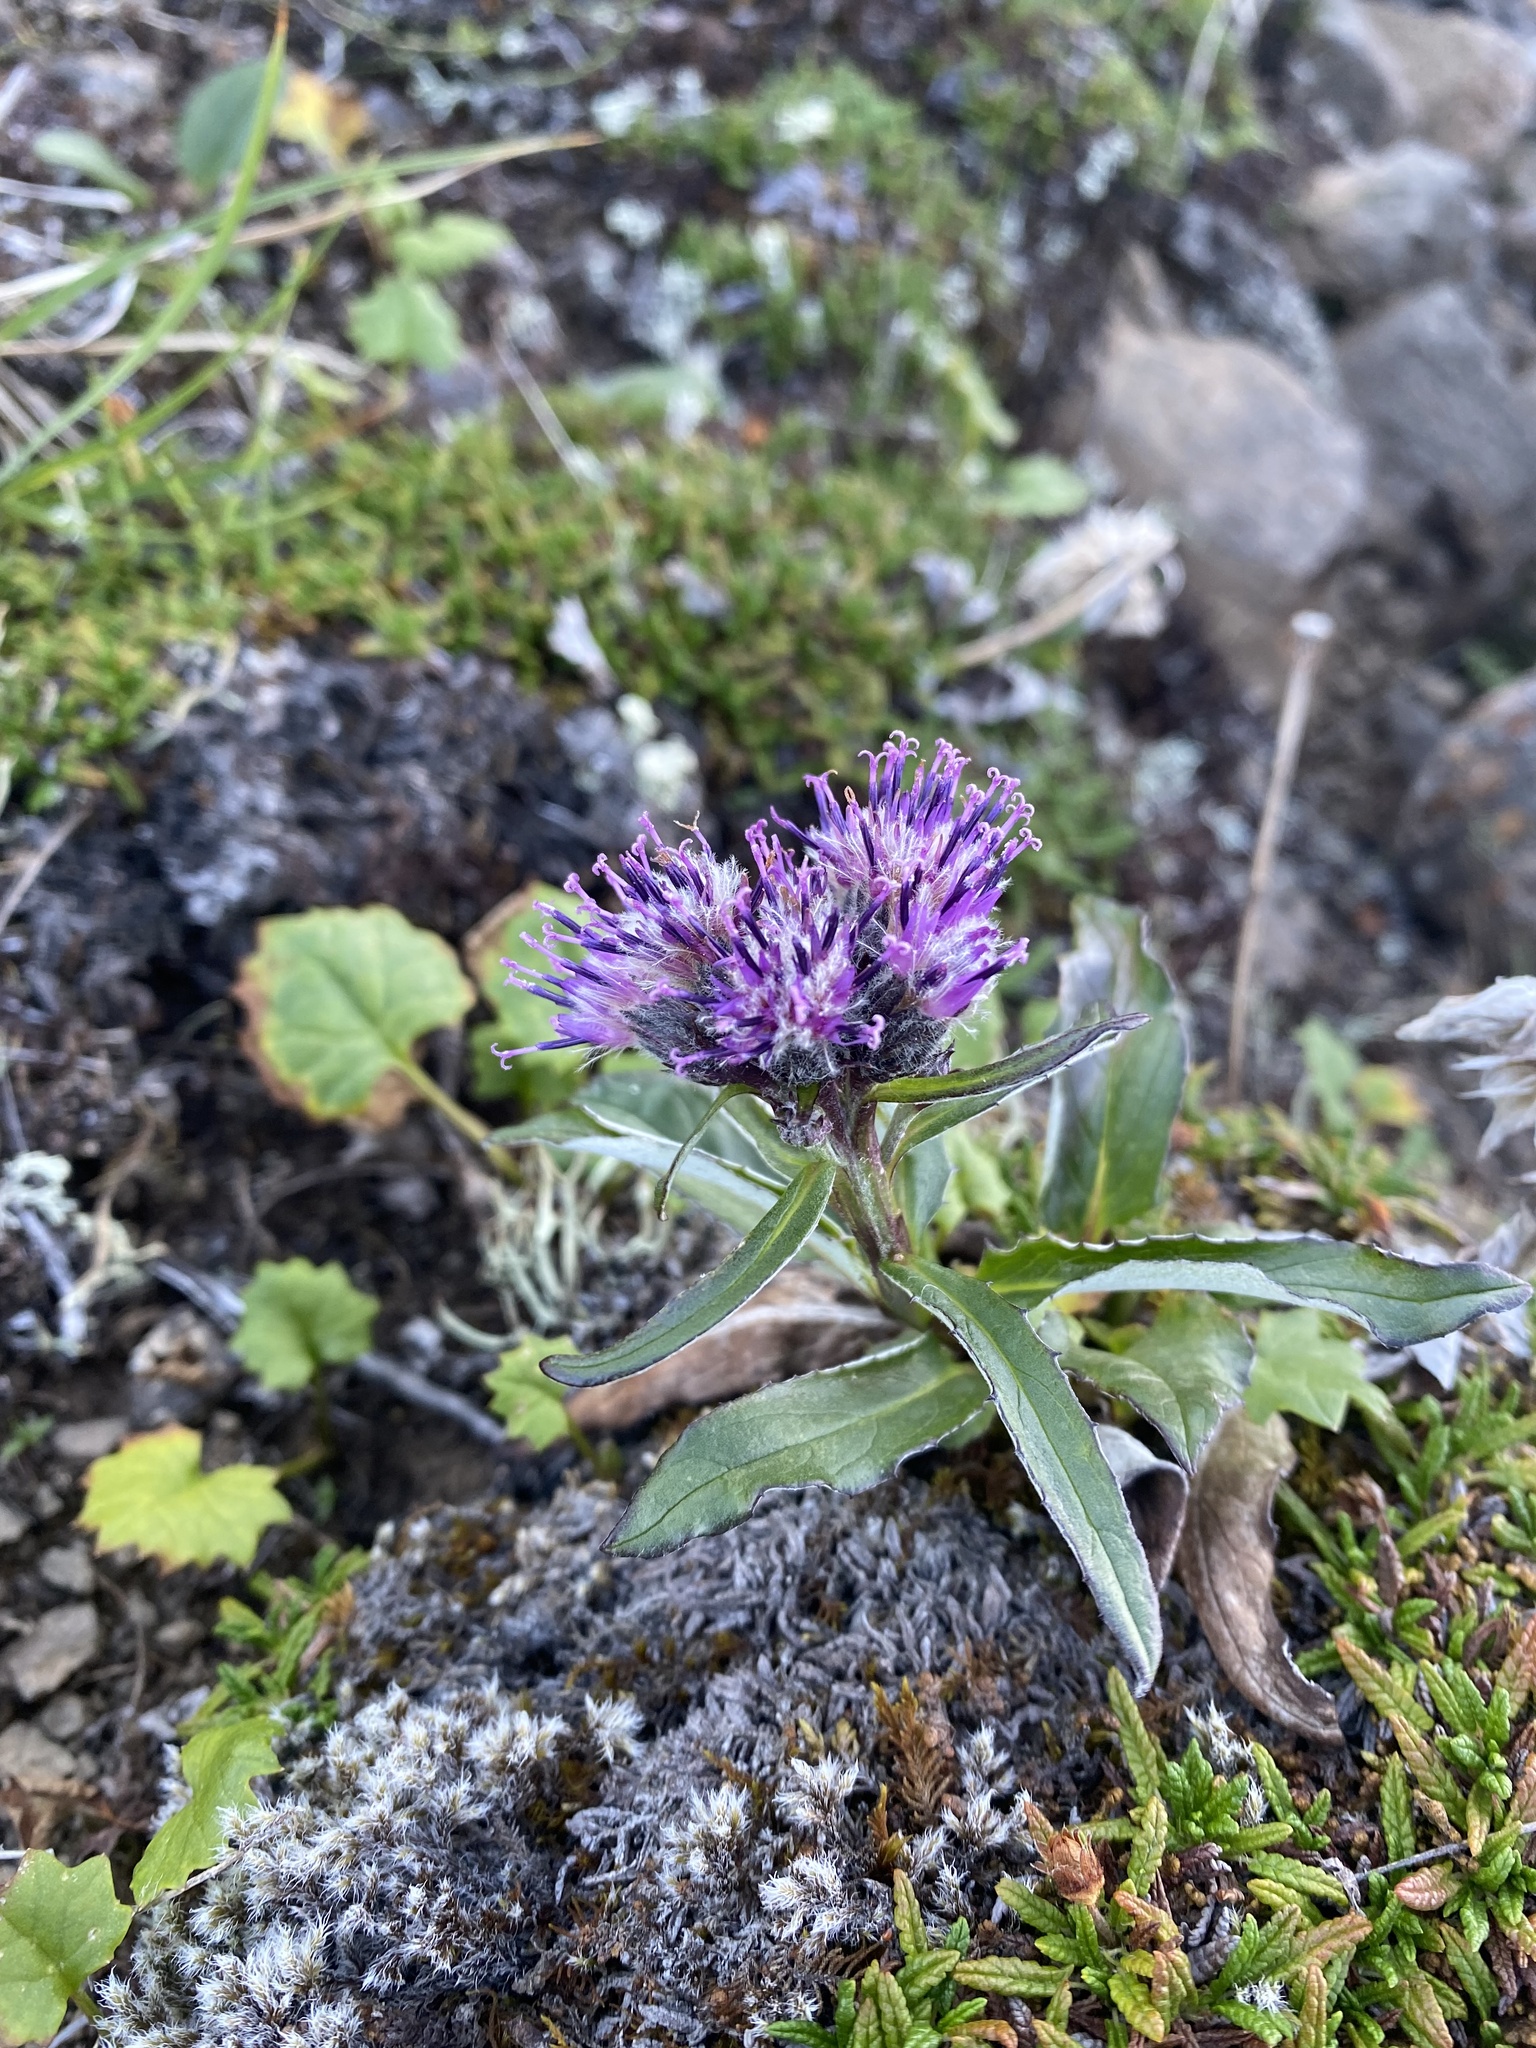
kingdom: Plantae
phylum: Tracheophyta
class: Magnoliopsida
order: Asterales
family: Asteraceae
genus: Saussurea
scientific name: Saussurea tilesii
